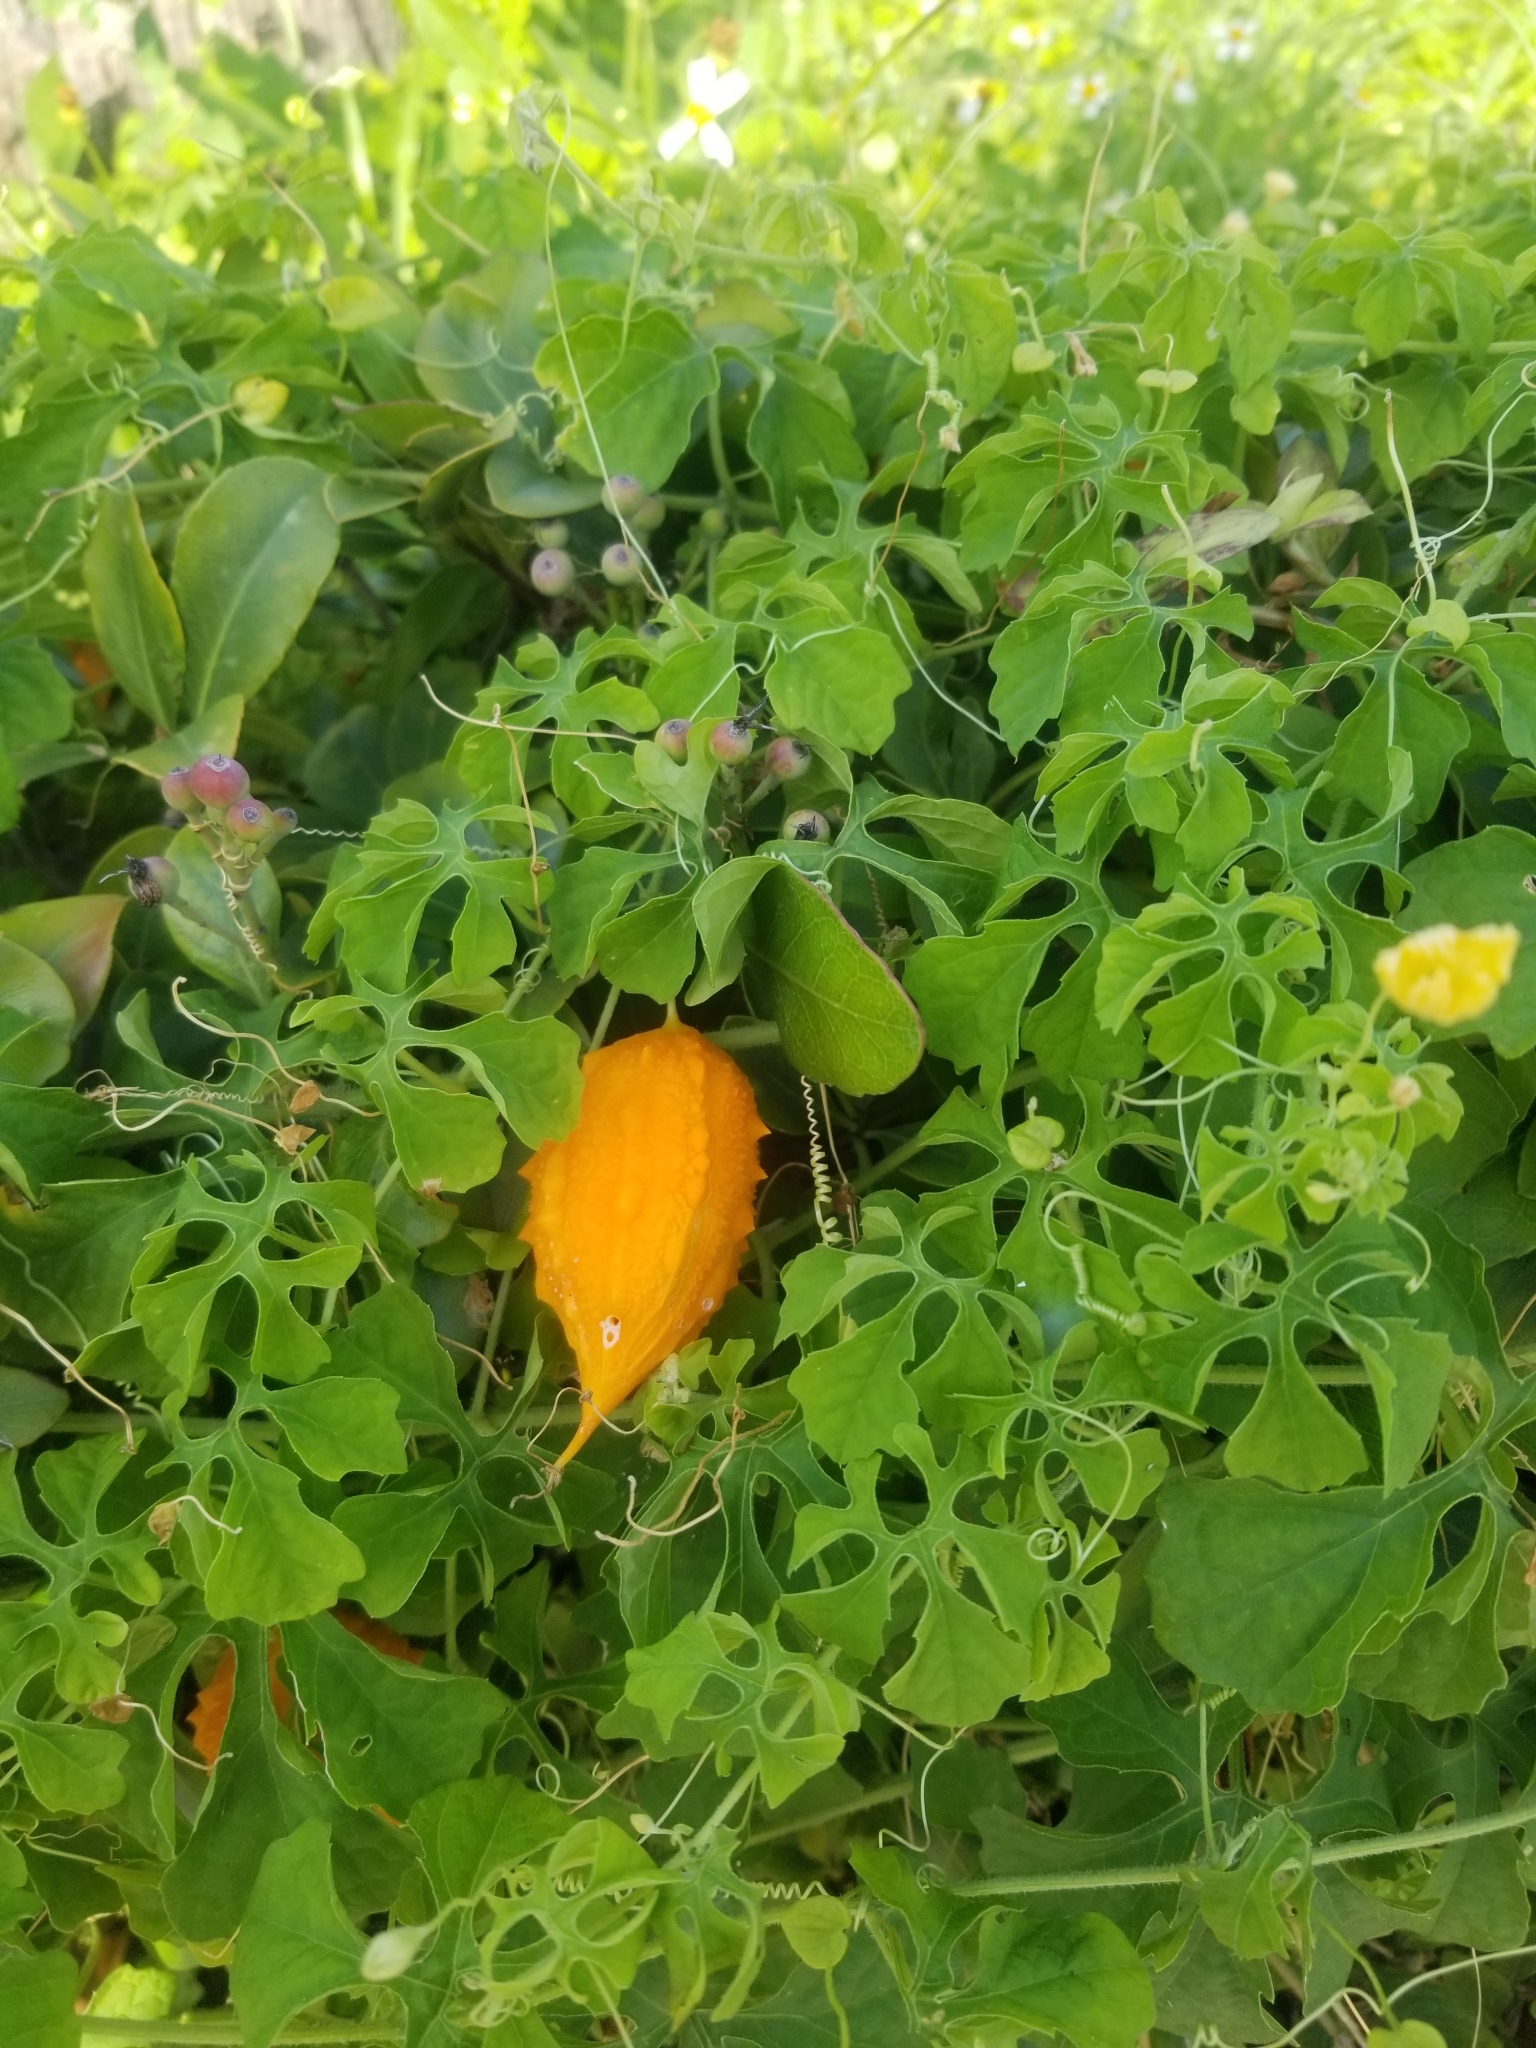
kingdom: Plantae
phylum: Tracheophyta
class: Magnoliopsida
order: Cucurbitales
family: Cucurbitaceae
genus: Momordica
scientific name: Momordica charantia
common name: Balsampear
